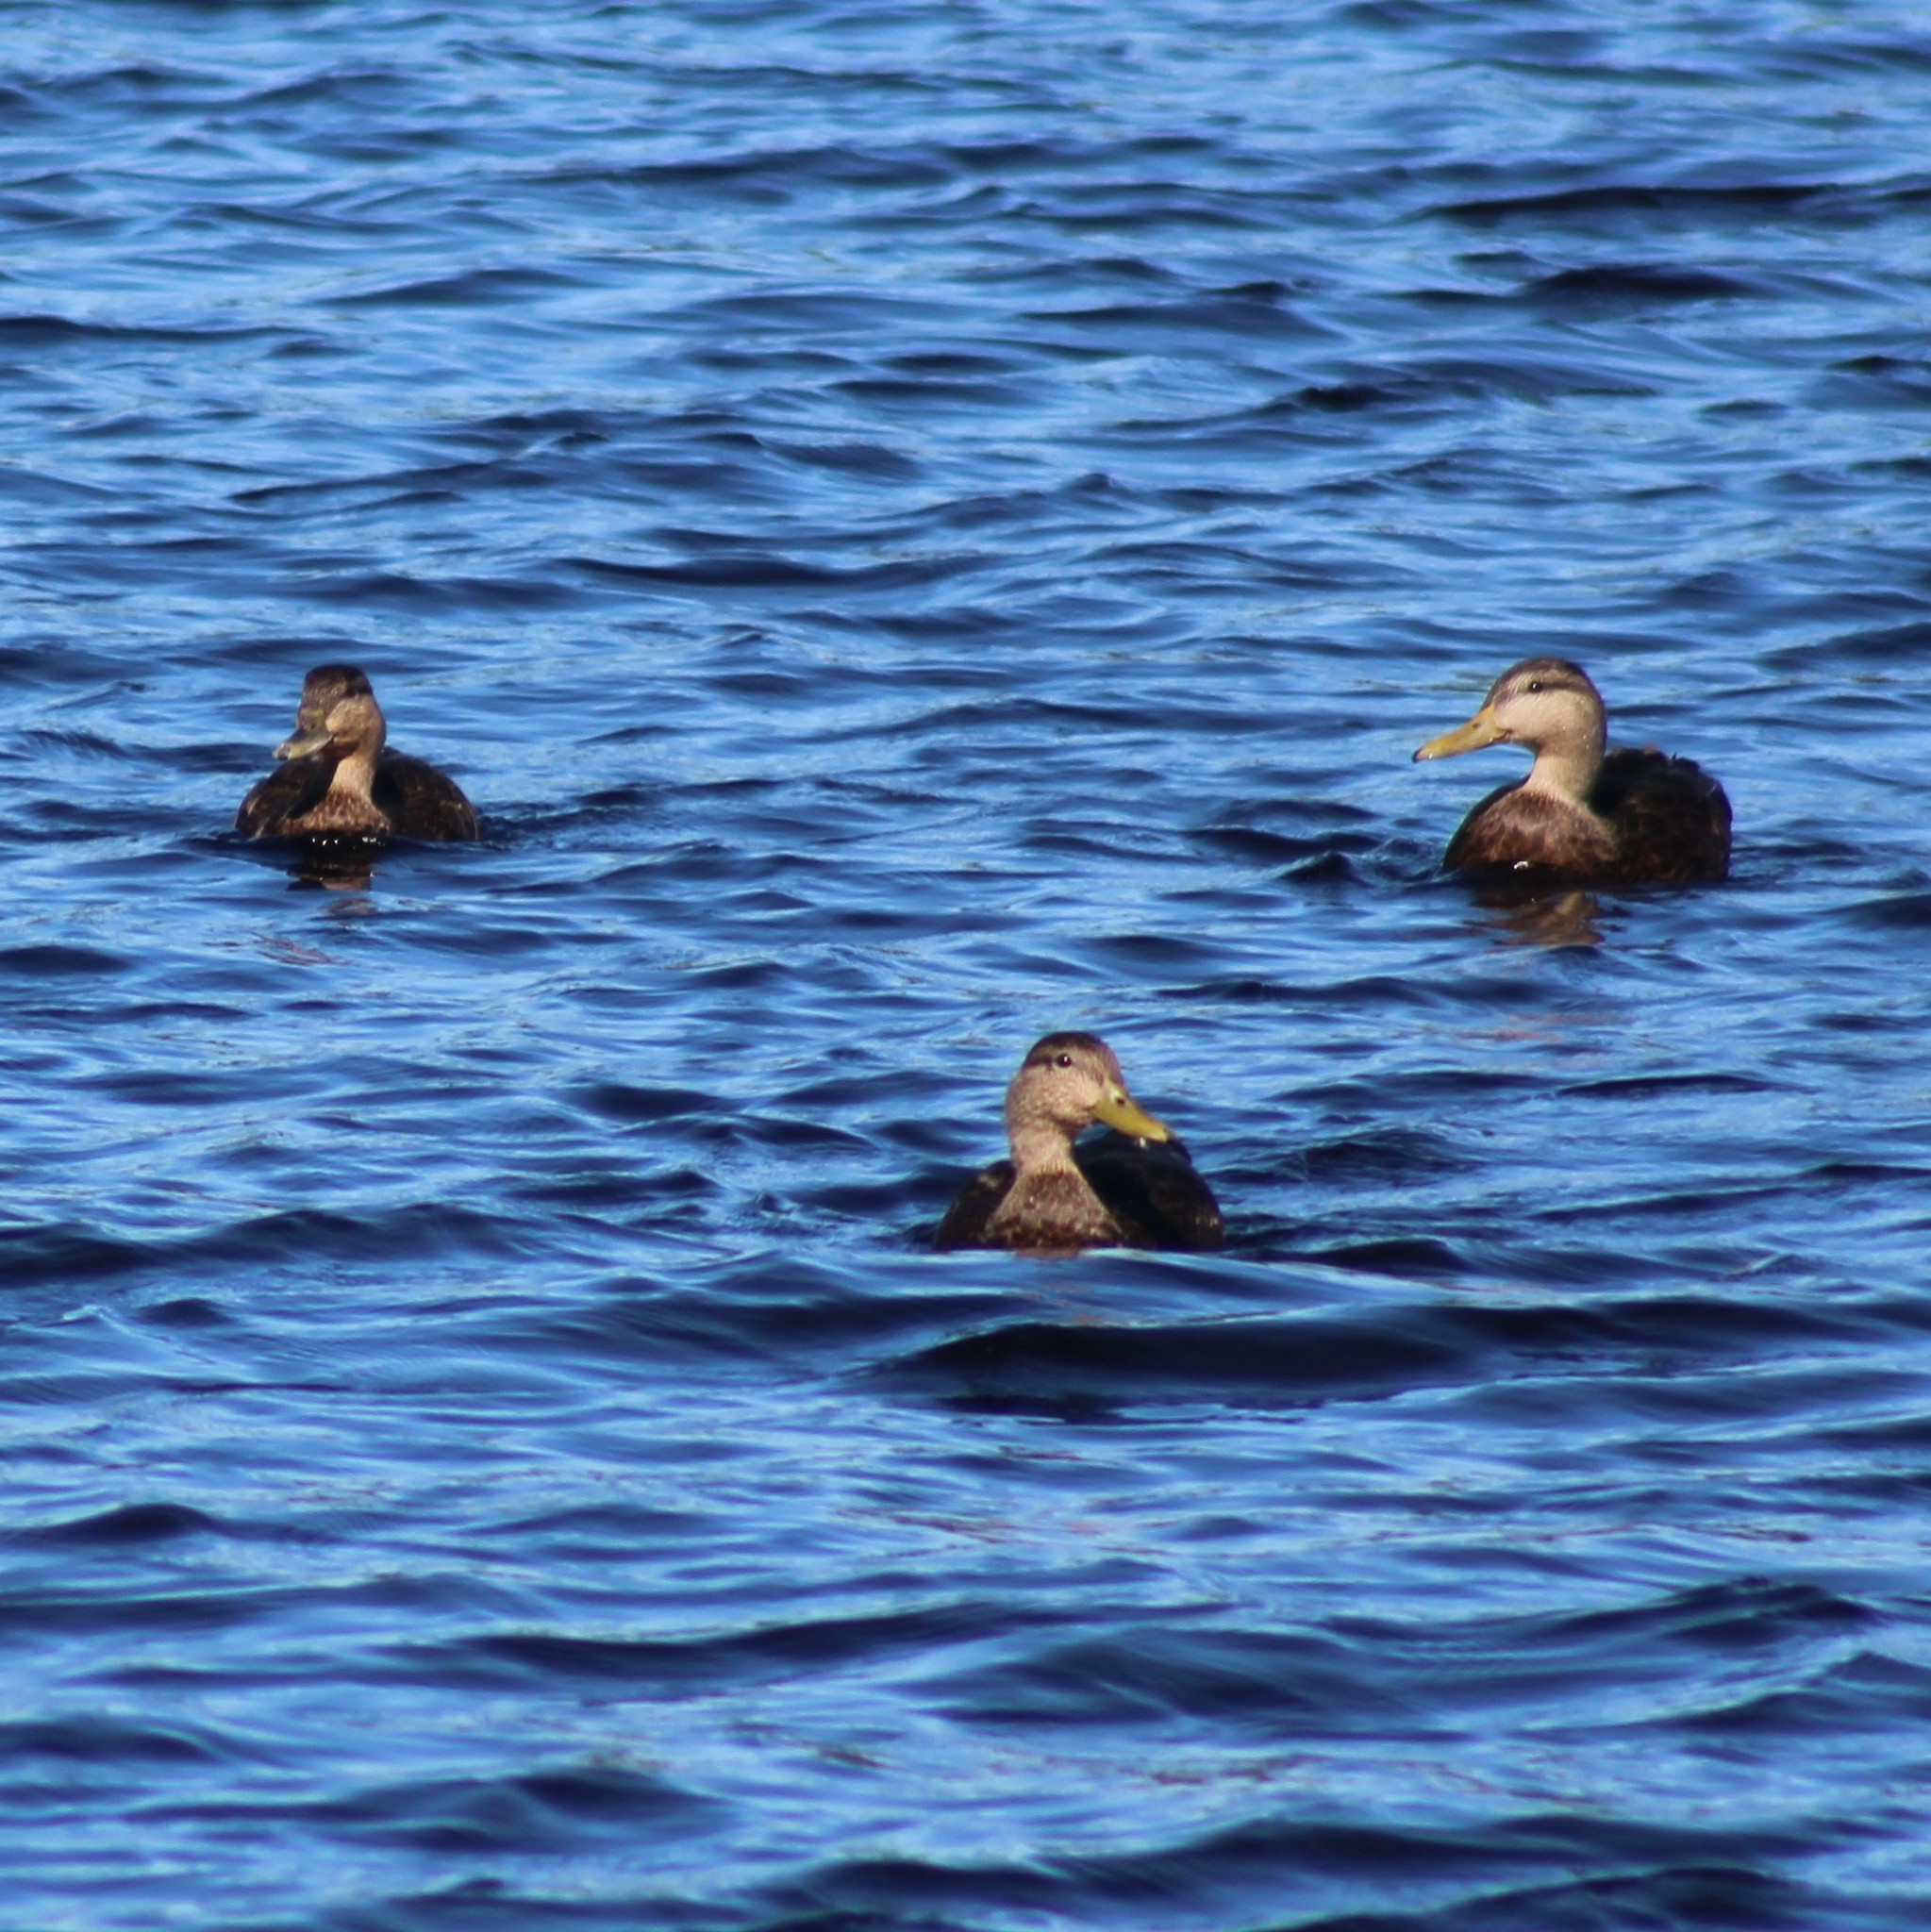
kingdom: Animalia
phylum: Chordata
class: Aves
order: Anseriformes
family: Anatidae
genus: Anas
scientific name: Anas rubripes
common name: American black duck
